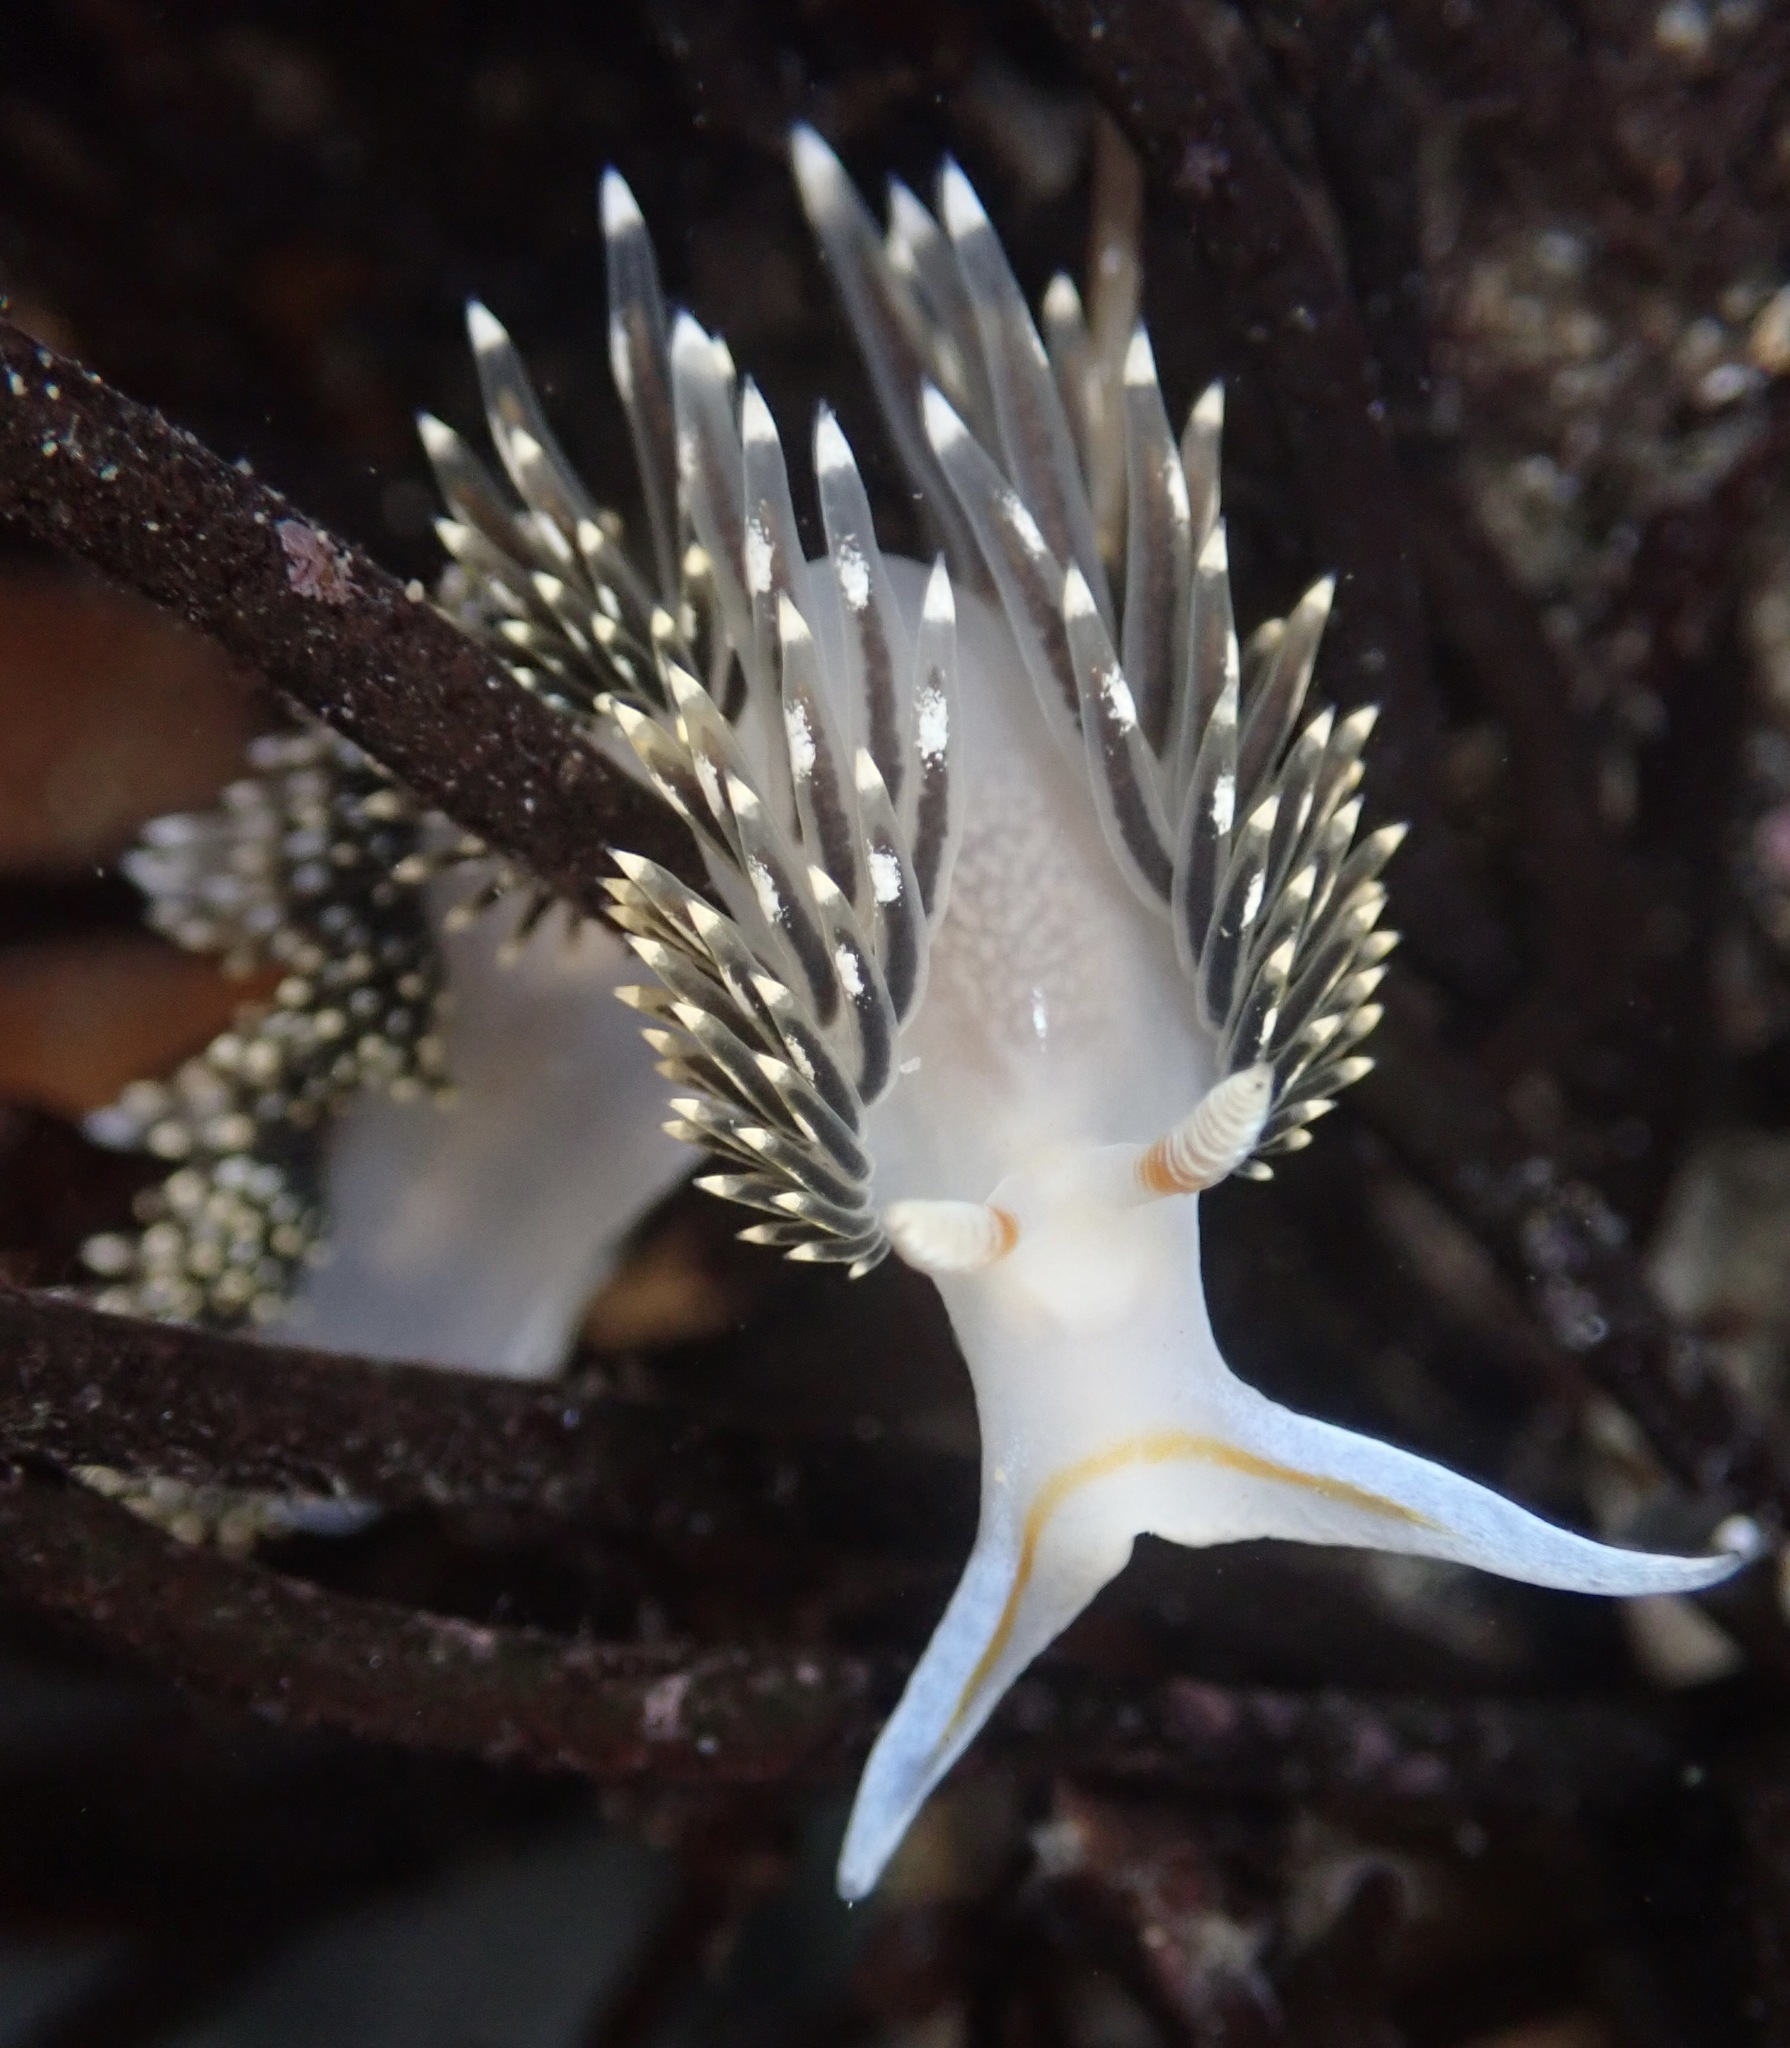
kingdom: Animalia
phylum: Mollusca
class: Gastropoda
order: Nudibranchia
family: Facelinidae
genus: Phidiana
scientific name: Phidiana hiltoni
